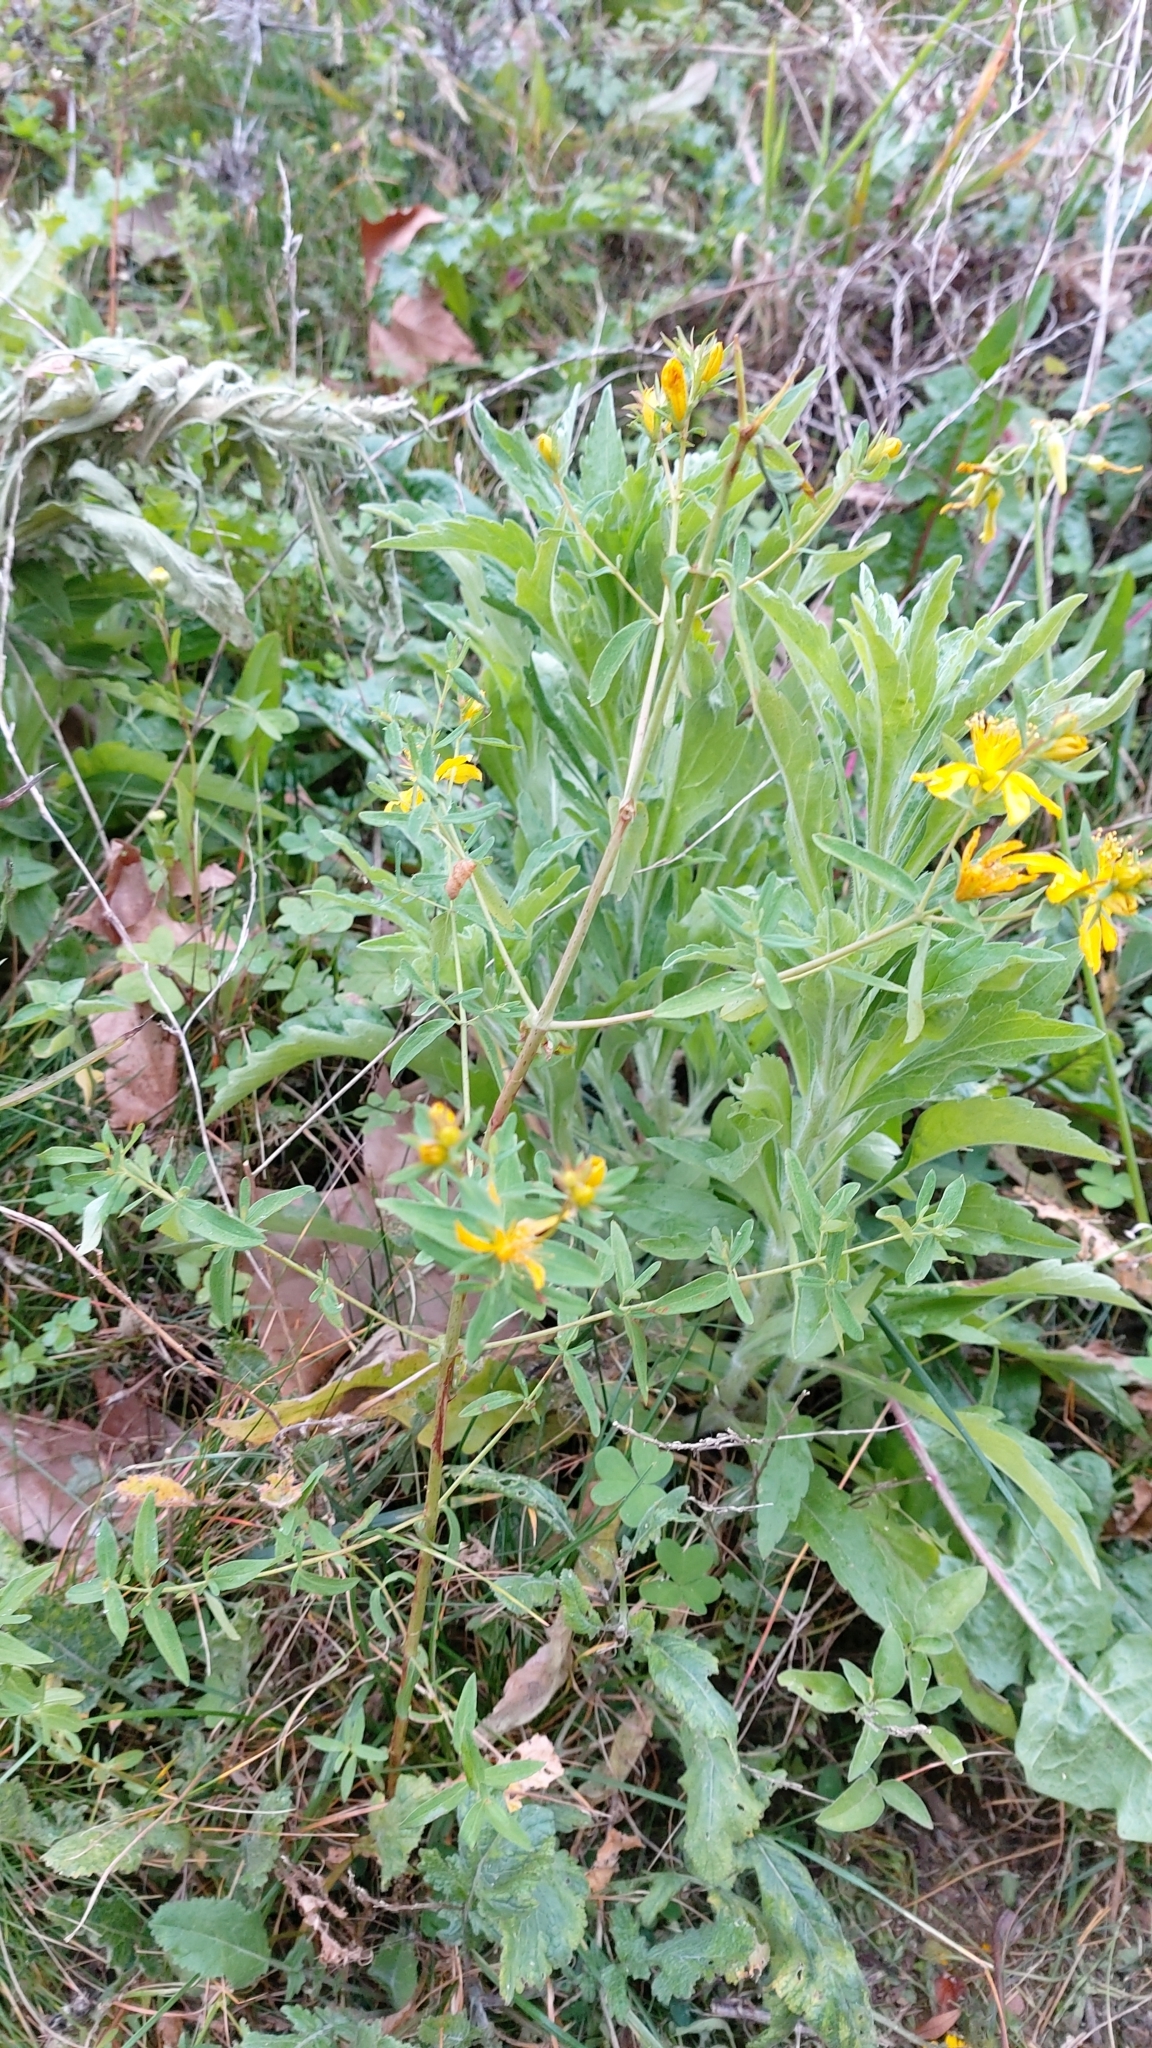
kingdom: Plantae
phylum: Tracheophyta
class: Magnoliopsida
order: Malpighiales
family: Hypericaceae
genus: Hypericum
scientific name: Hypericum perforatum
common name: Common st. johnswort
